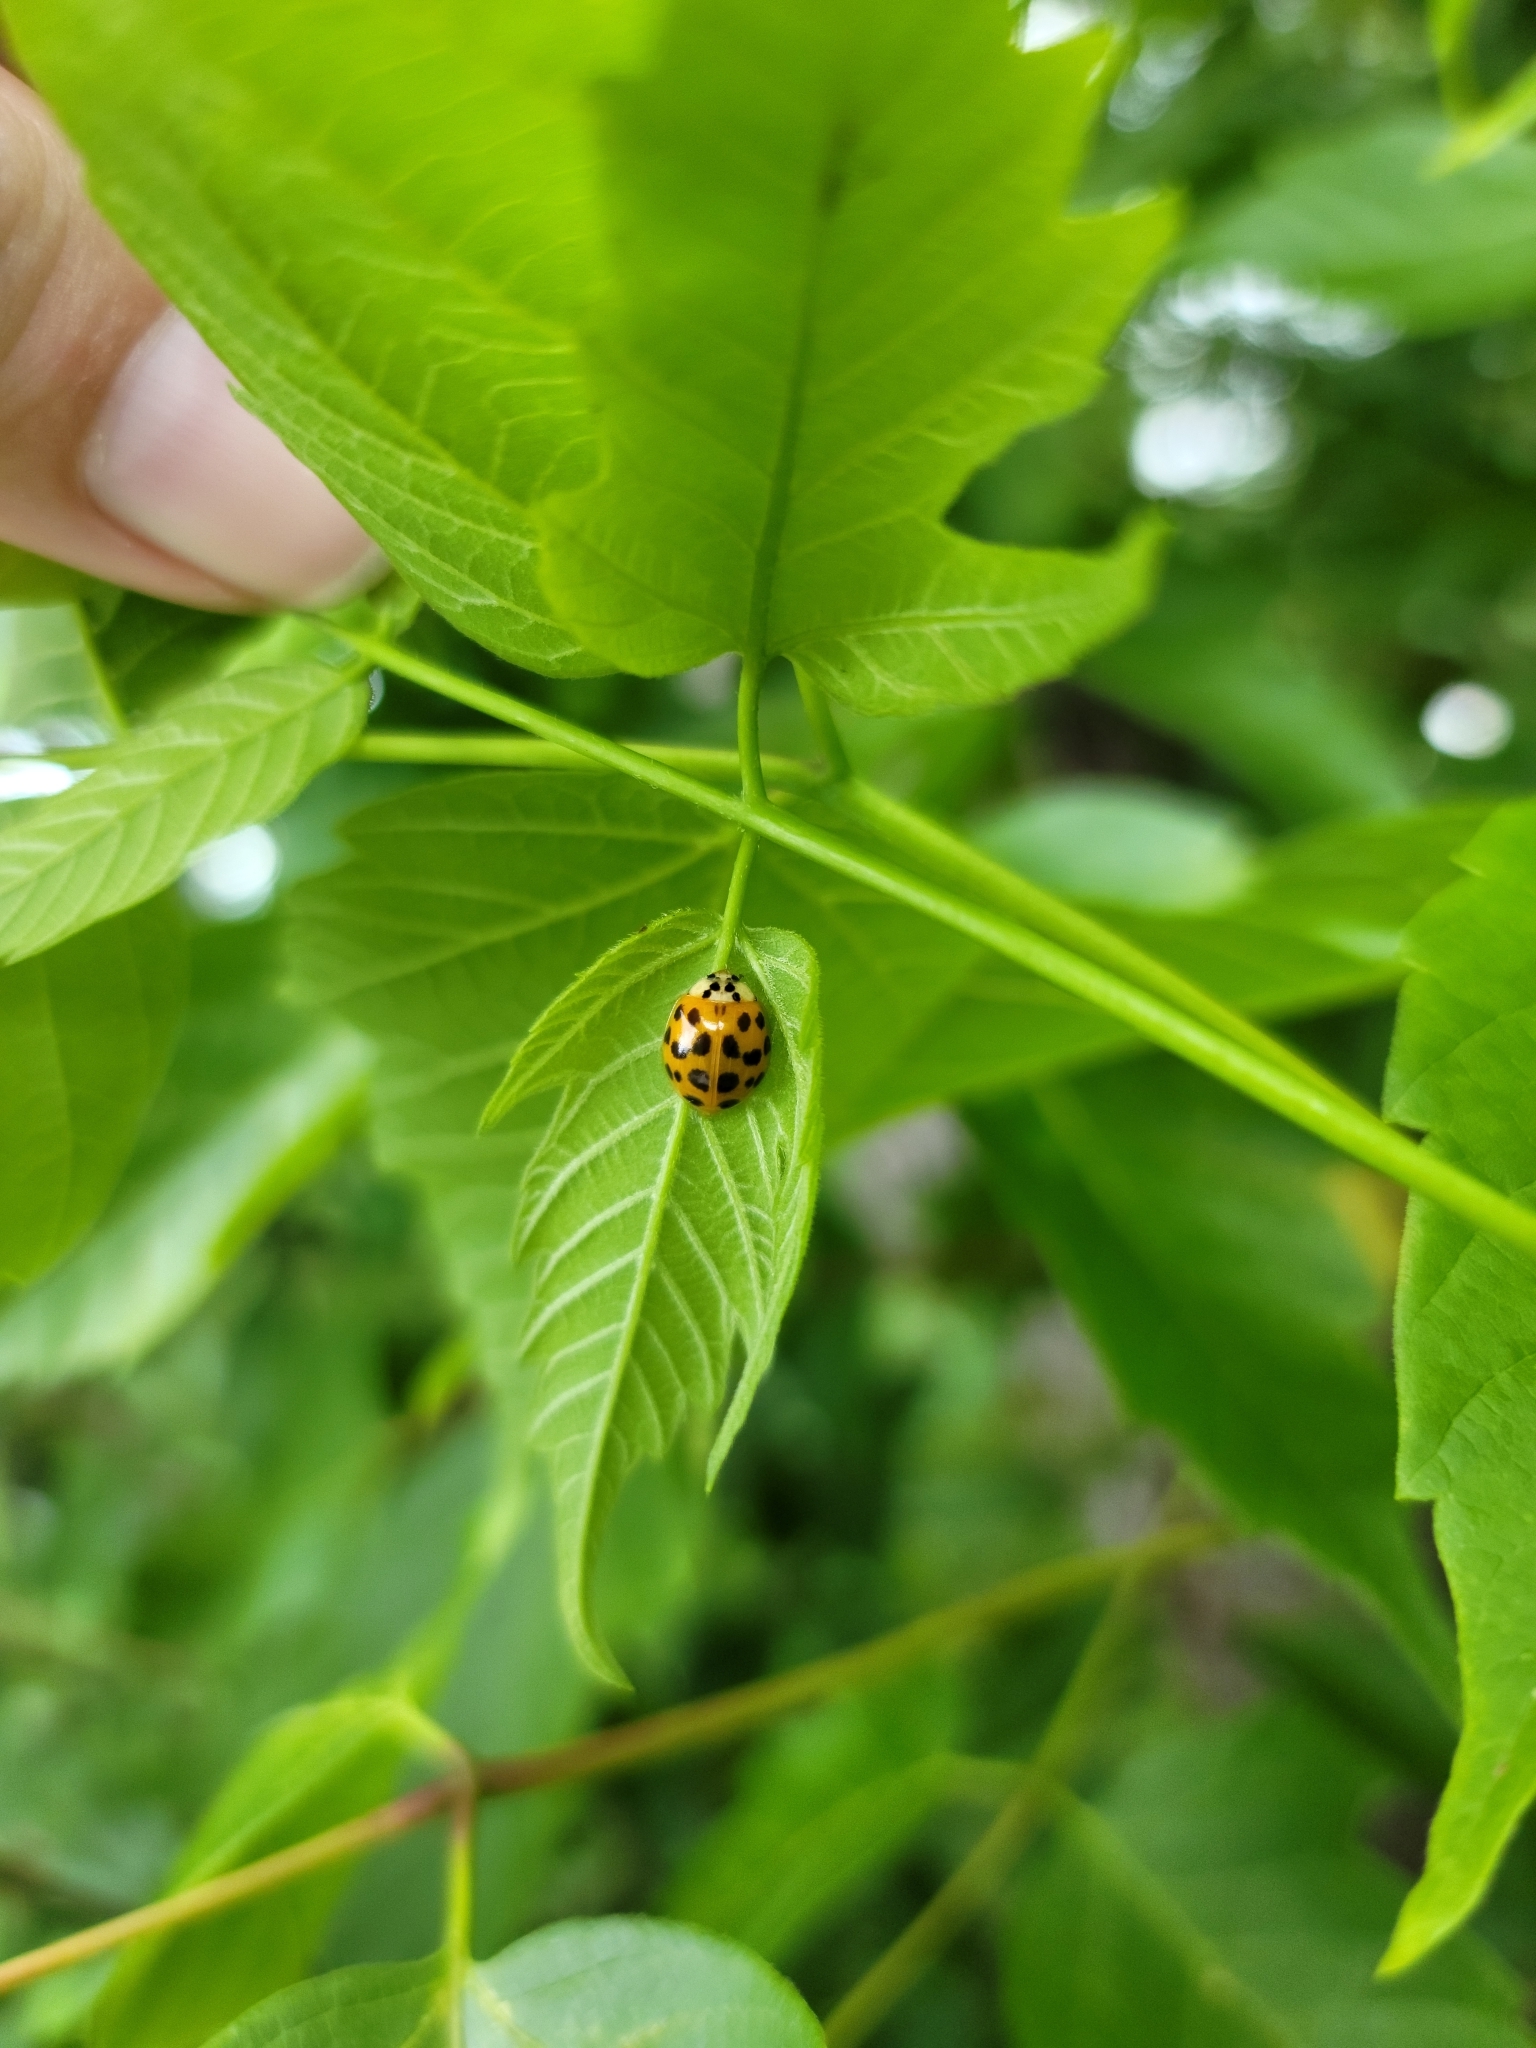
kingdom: Animalia
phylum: Arthropoda
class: Insecta
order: Coleoptera
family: Coccinellidae
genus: Harmonia
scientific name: Harmonia axyridis
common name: Harlequin ladybird
